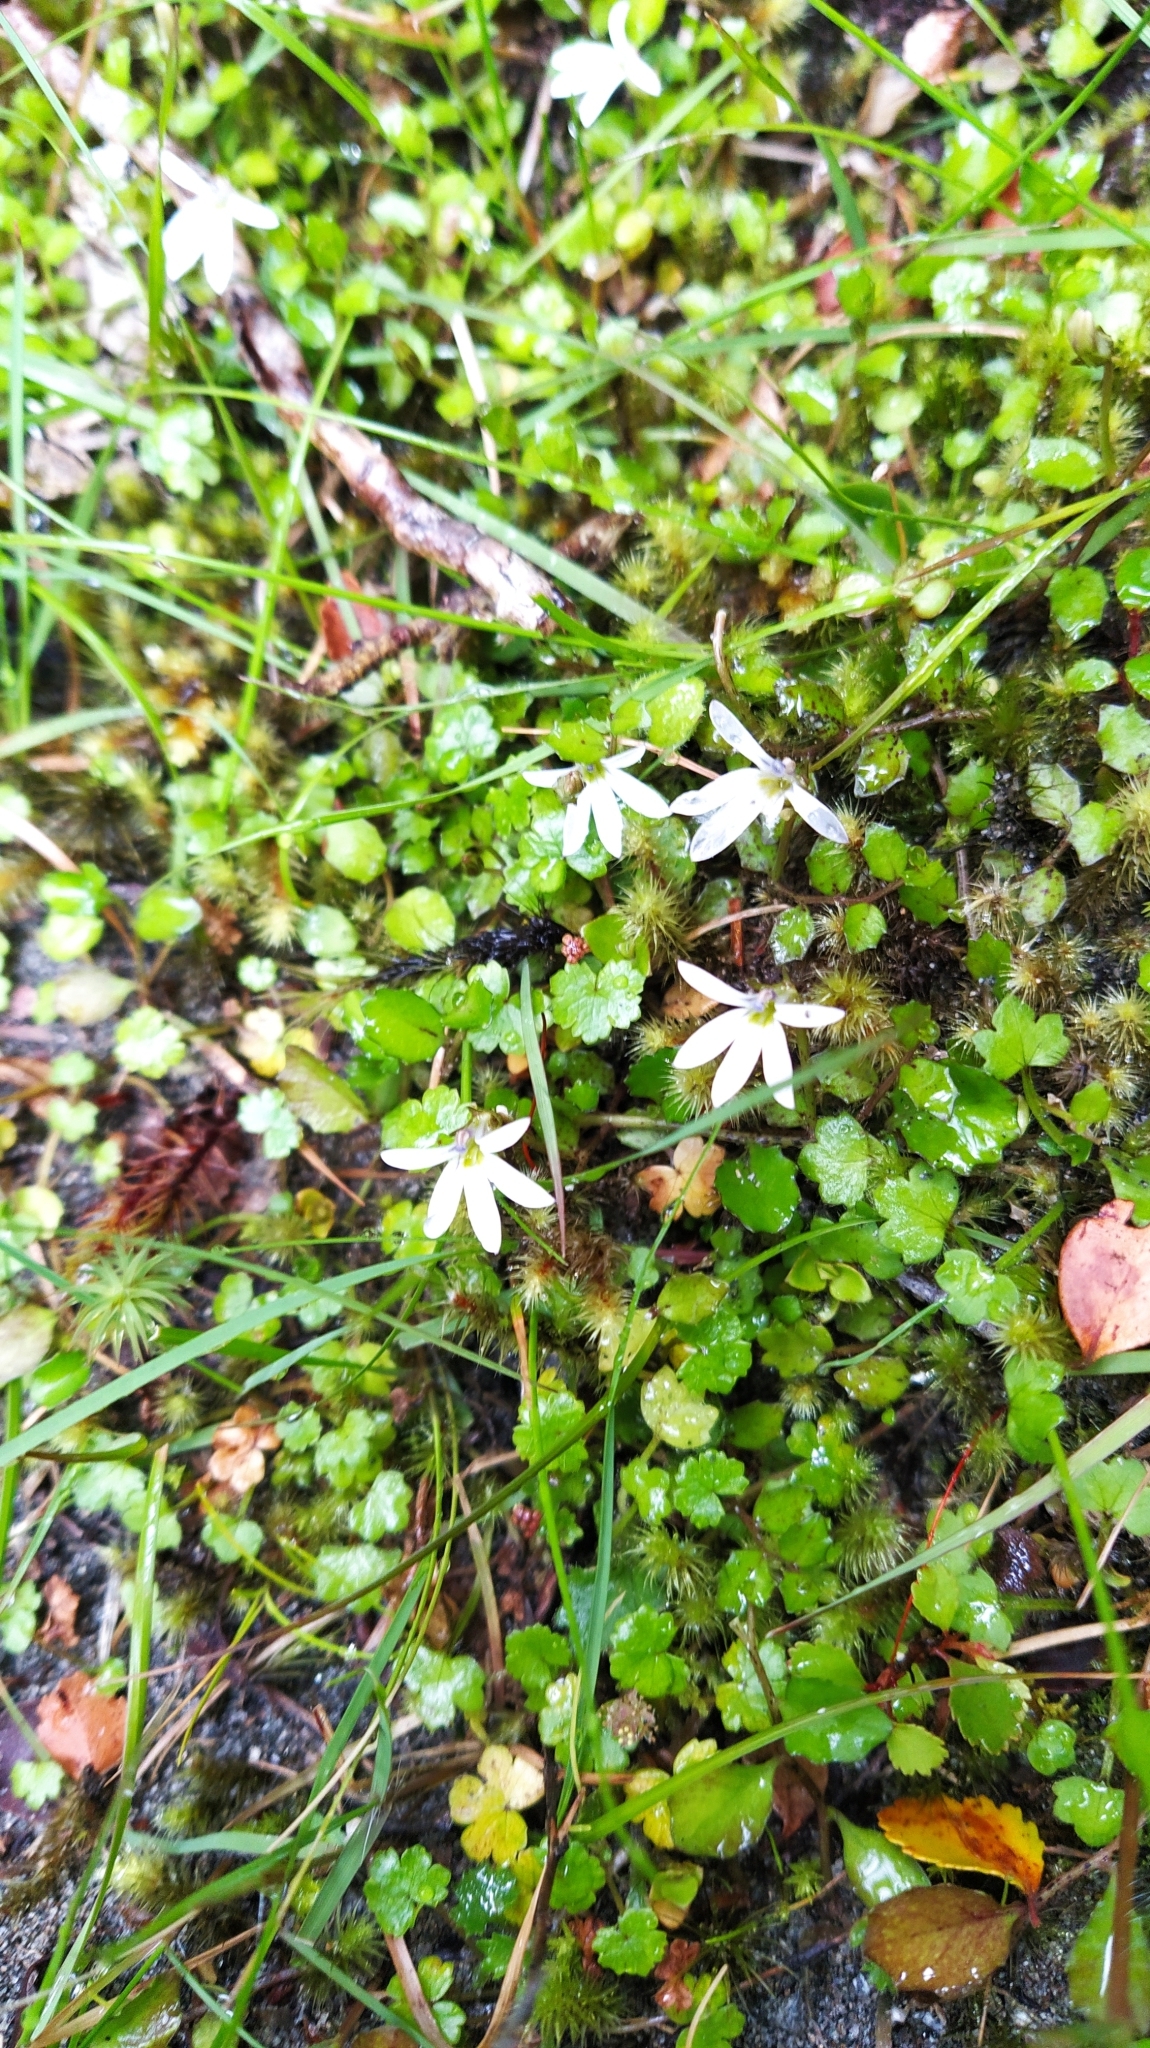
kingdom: Plantae
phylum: Tracheophyta
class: Magnoliopsida
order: Asterales
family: Campanulaceae
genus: Lobelia
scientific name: Lobelia angulata
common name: Lawn lobelia
